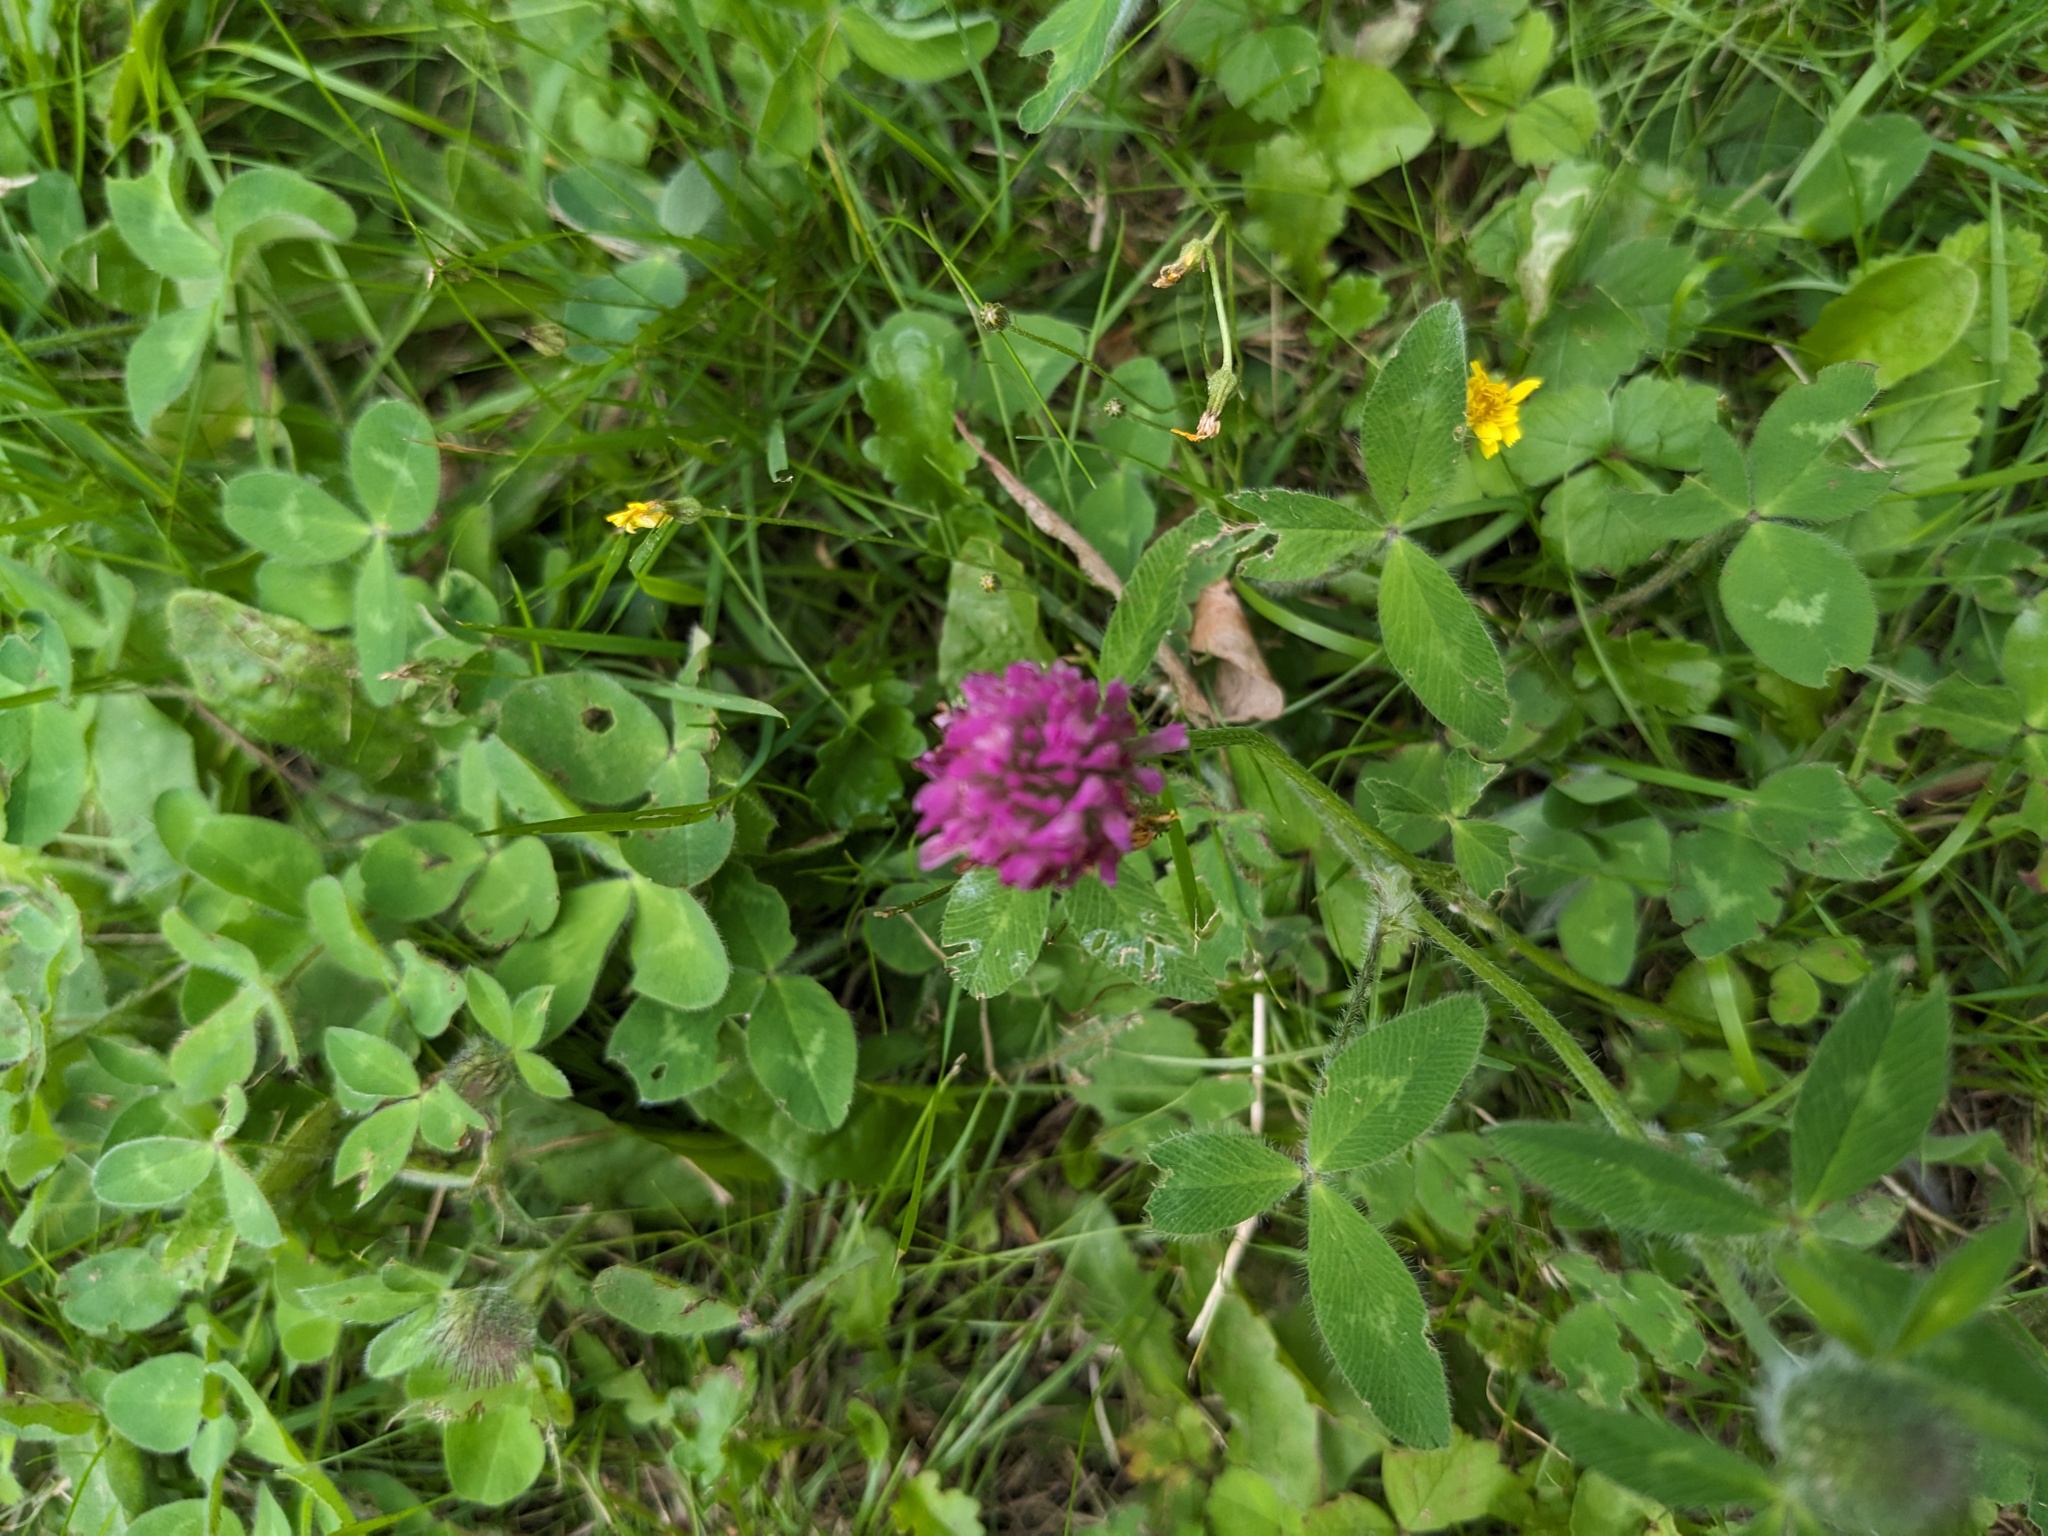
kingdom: Plantae
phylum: Tracheophyta
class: Magnoliopsida
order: Fabales
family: Fabaceae
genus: Trifolium
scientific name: Trifolium pratense
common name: Red clover
